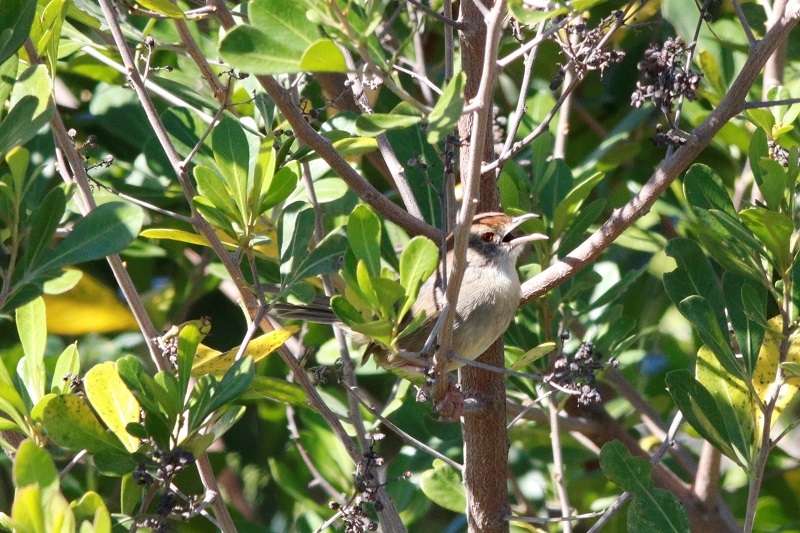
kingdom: Animalia
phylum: Chordata
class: Aves
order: Passeriformes
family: Cisticolidae
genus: Cisticola
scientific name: Cisticola aberrans
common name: Lazy cisticola
